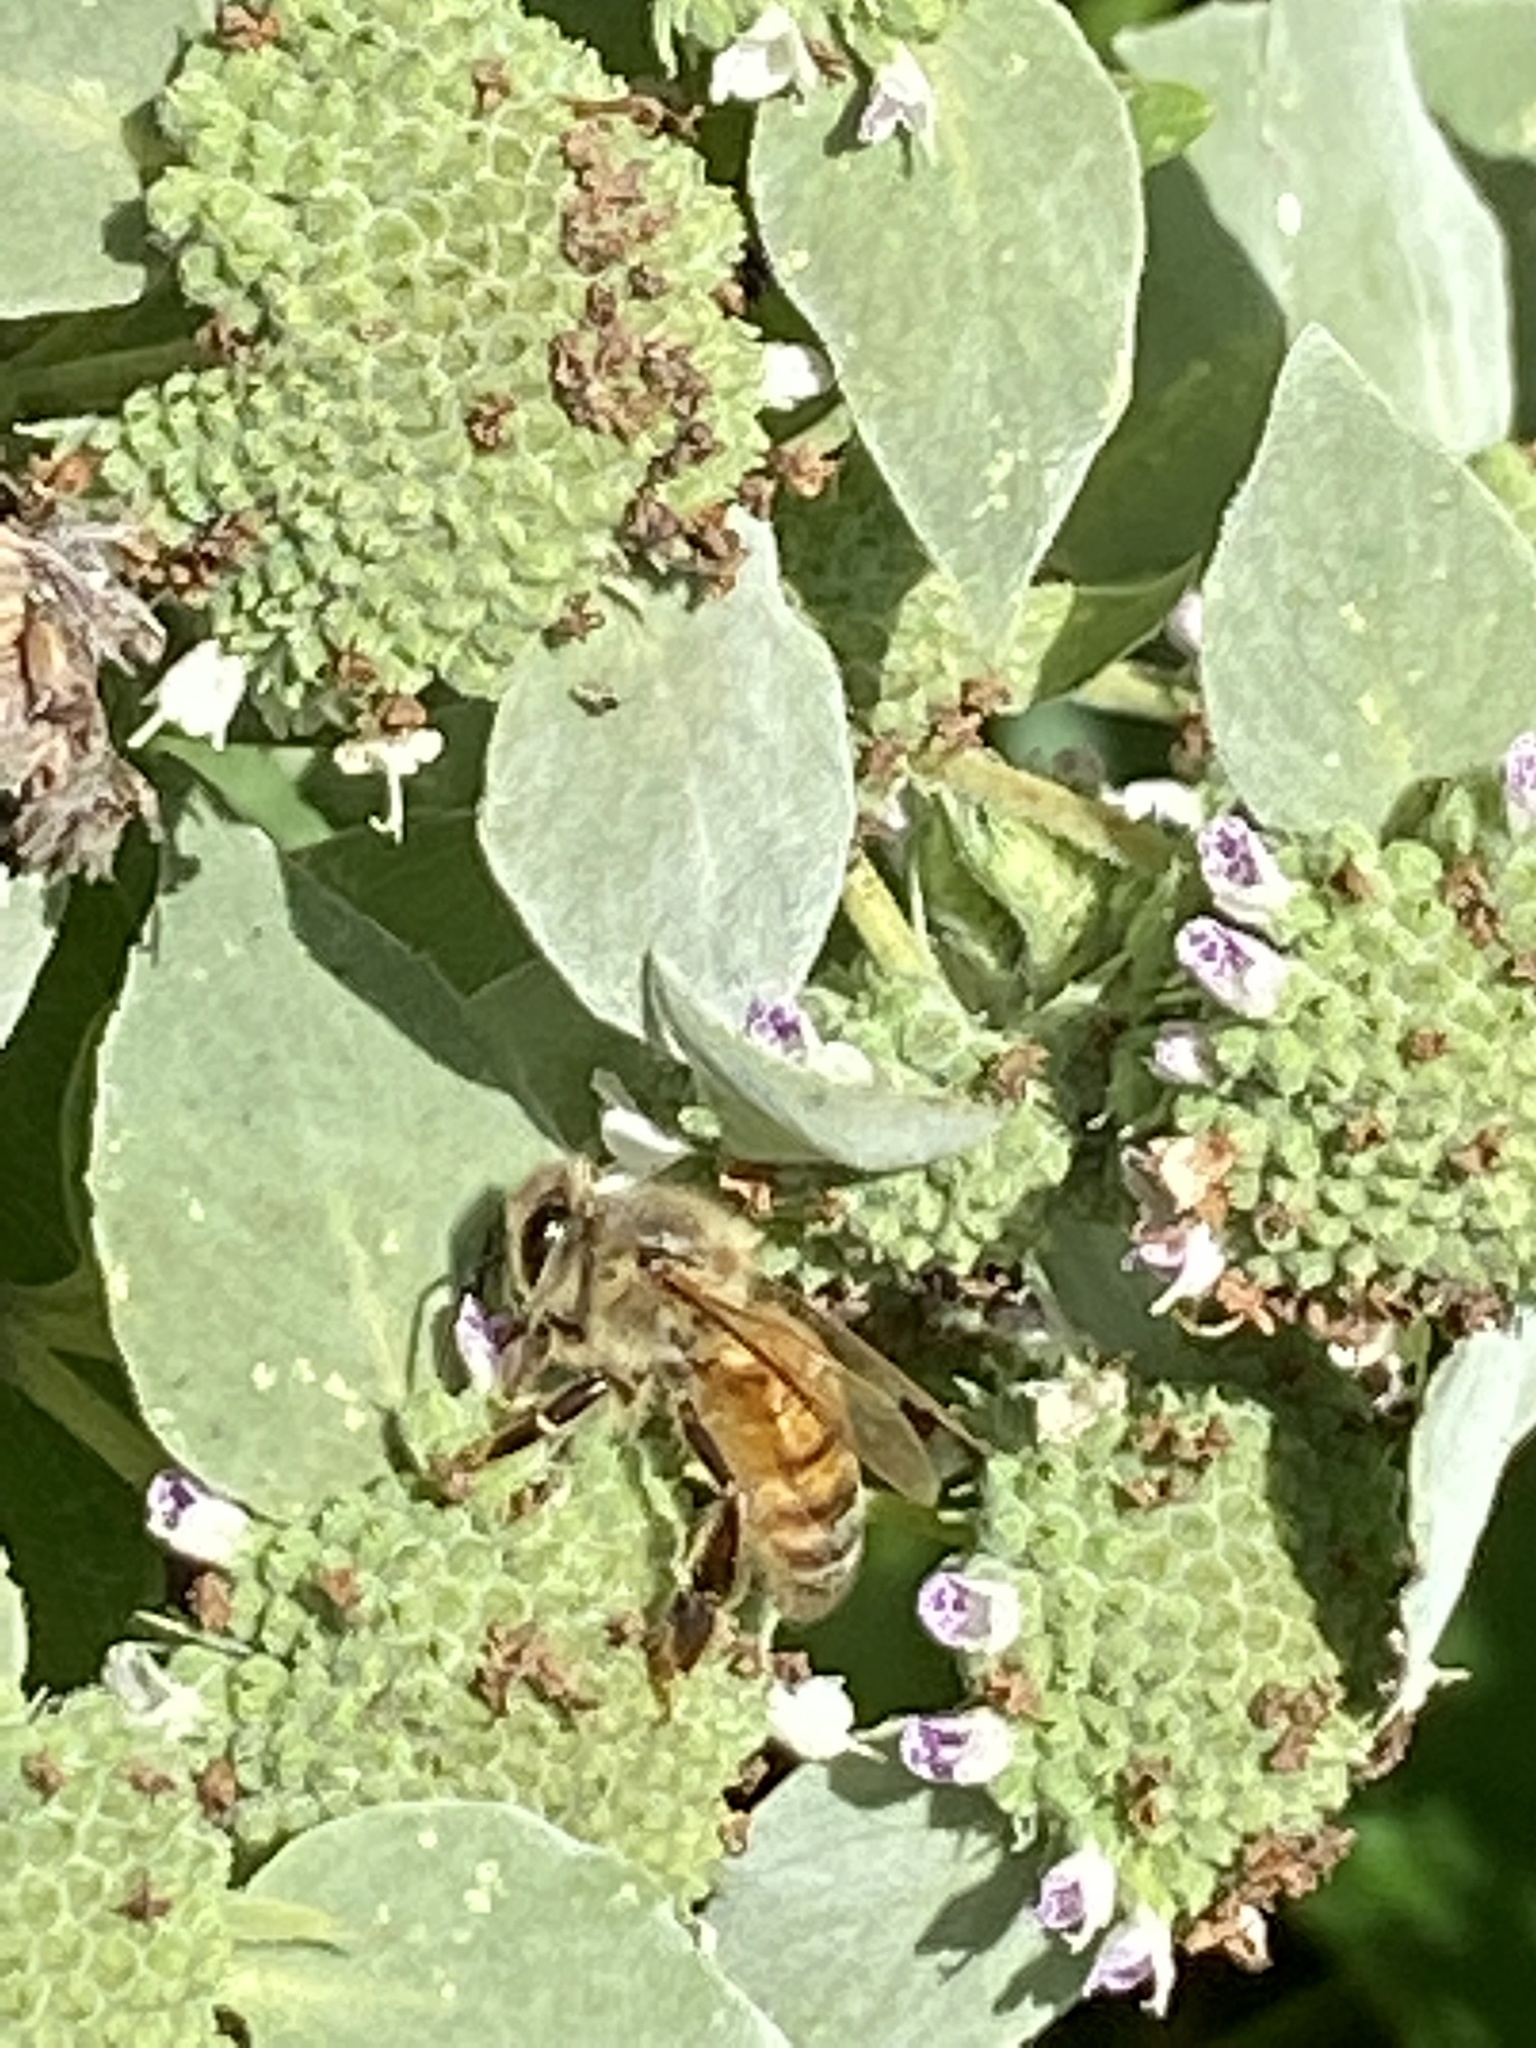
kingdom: Animalia
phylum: Arthropoda
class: Insecta
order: Hymenoptera
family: Apidae
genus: Apis
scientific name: Apis mellifera
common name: Honey bee
